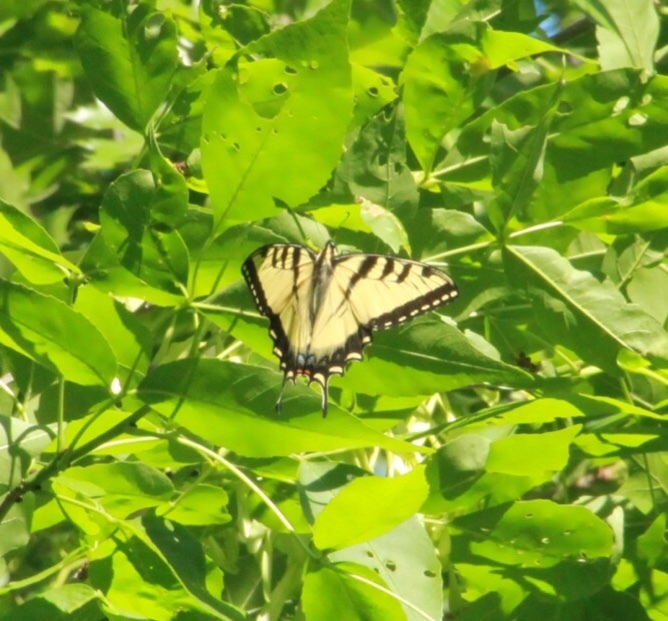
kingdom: Animalia
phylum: Arthropoda
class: Insecta
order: Lepidoptera
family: Papilionidae
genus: Papilio
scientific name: Papilio glaucus
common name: Tiger swallowtail
